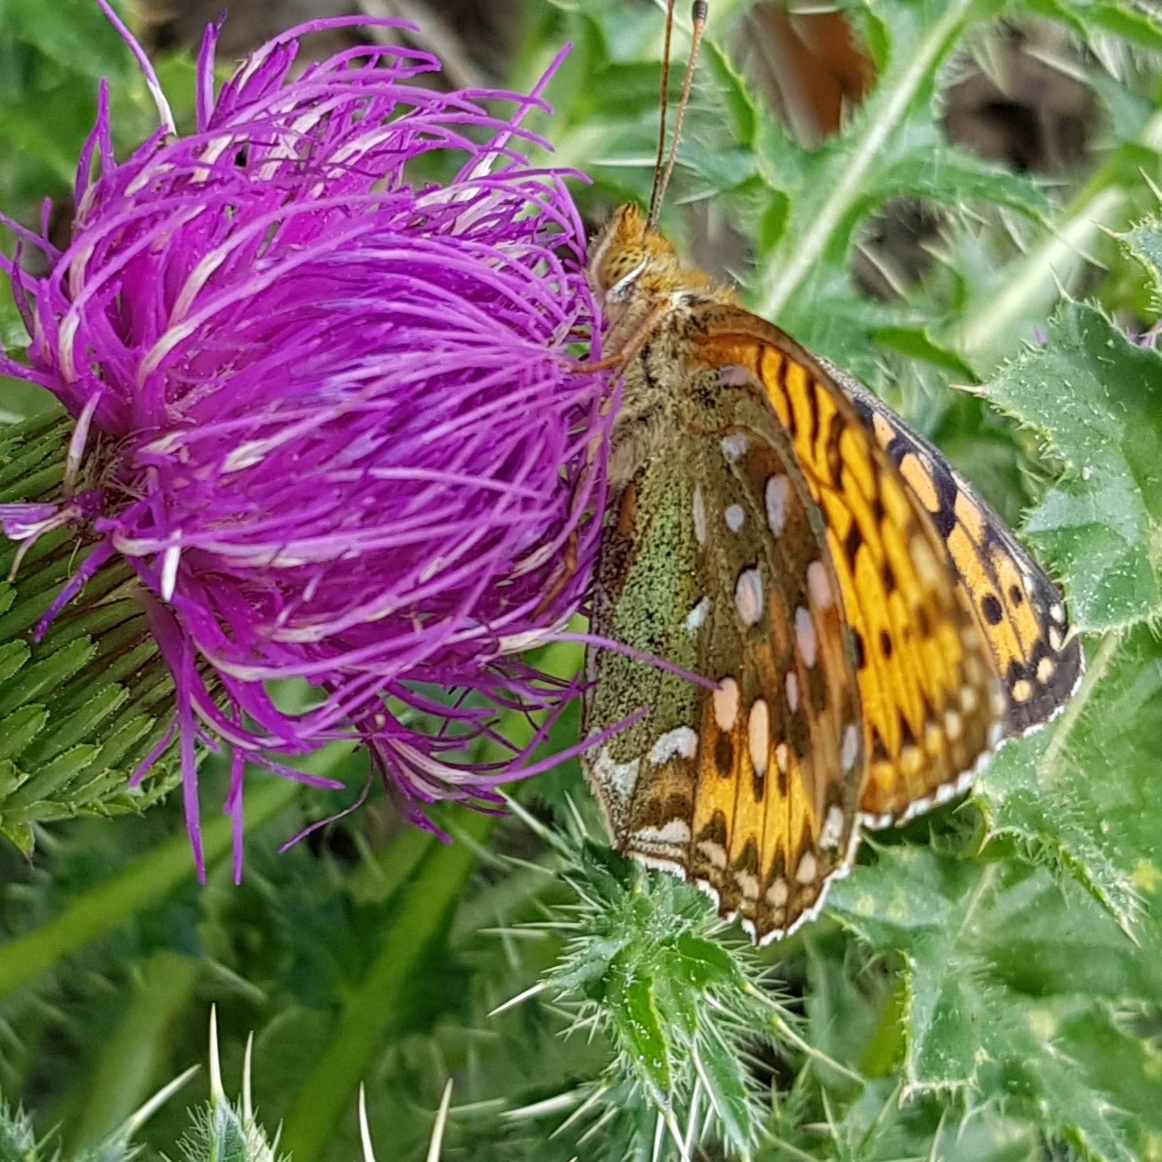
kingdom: Animalia
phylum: Arthropoda
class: Insecta
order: Lepidoptera
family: Nymphalidae
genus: Speyeria
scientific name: Speyeria aglaja
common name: Dark green fritillary
